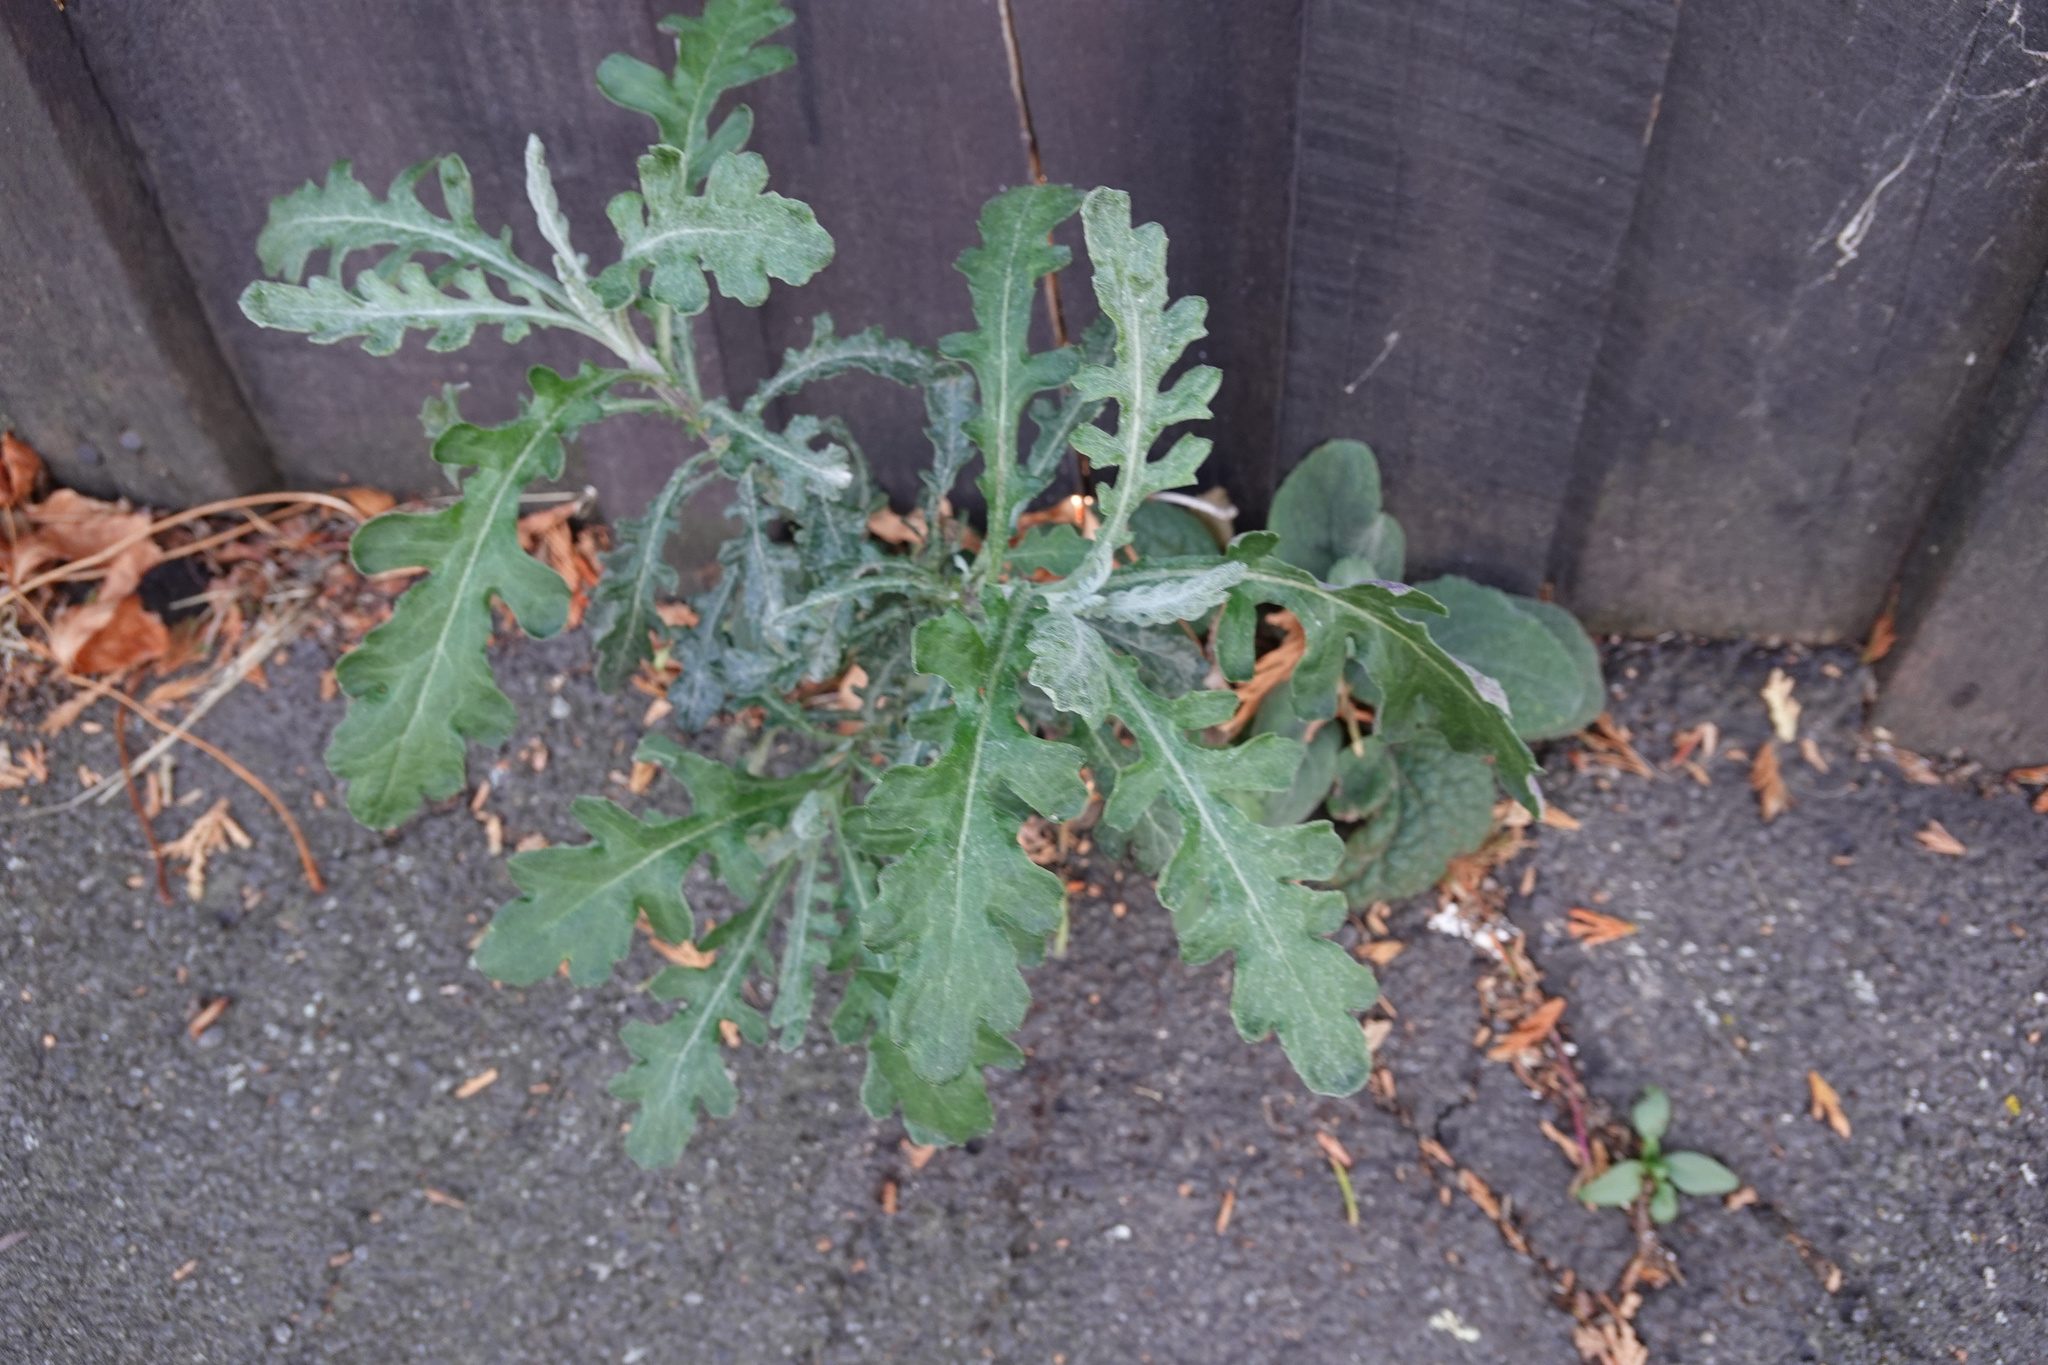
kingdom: Plantae
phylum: Tracheophyta
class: Magnoliopsida
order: Asterales
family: Asteraceae
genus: Senecio
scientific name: Senecio glomeratus
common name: Cutleaf burnweed
